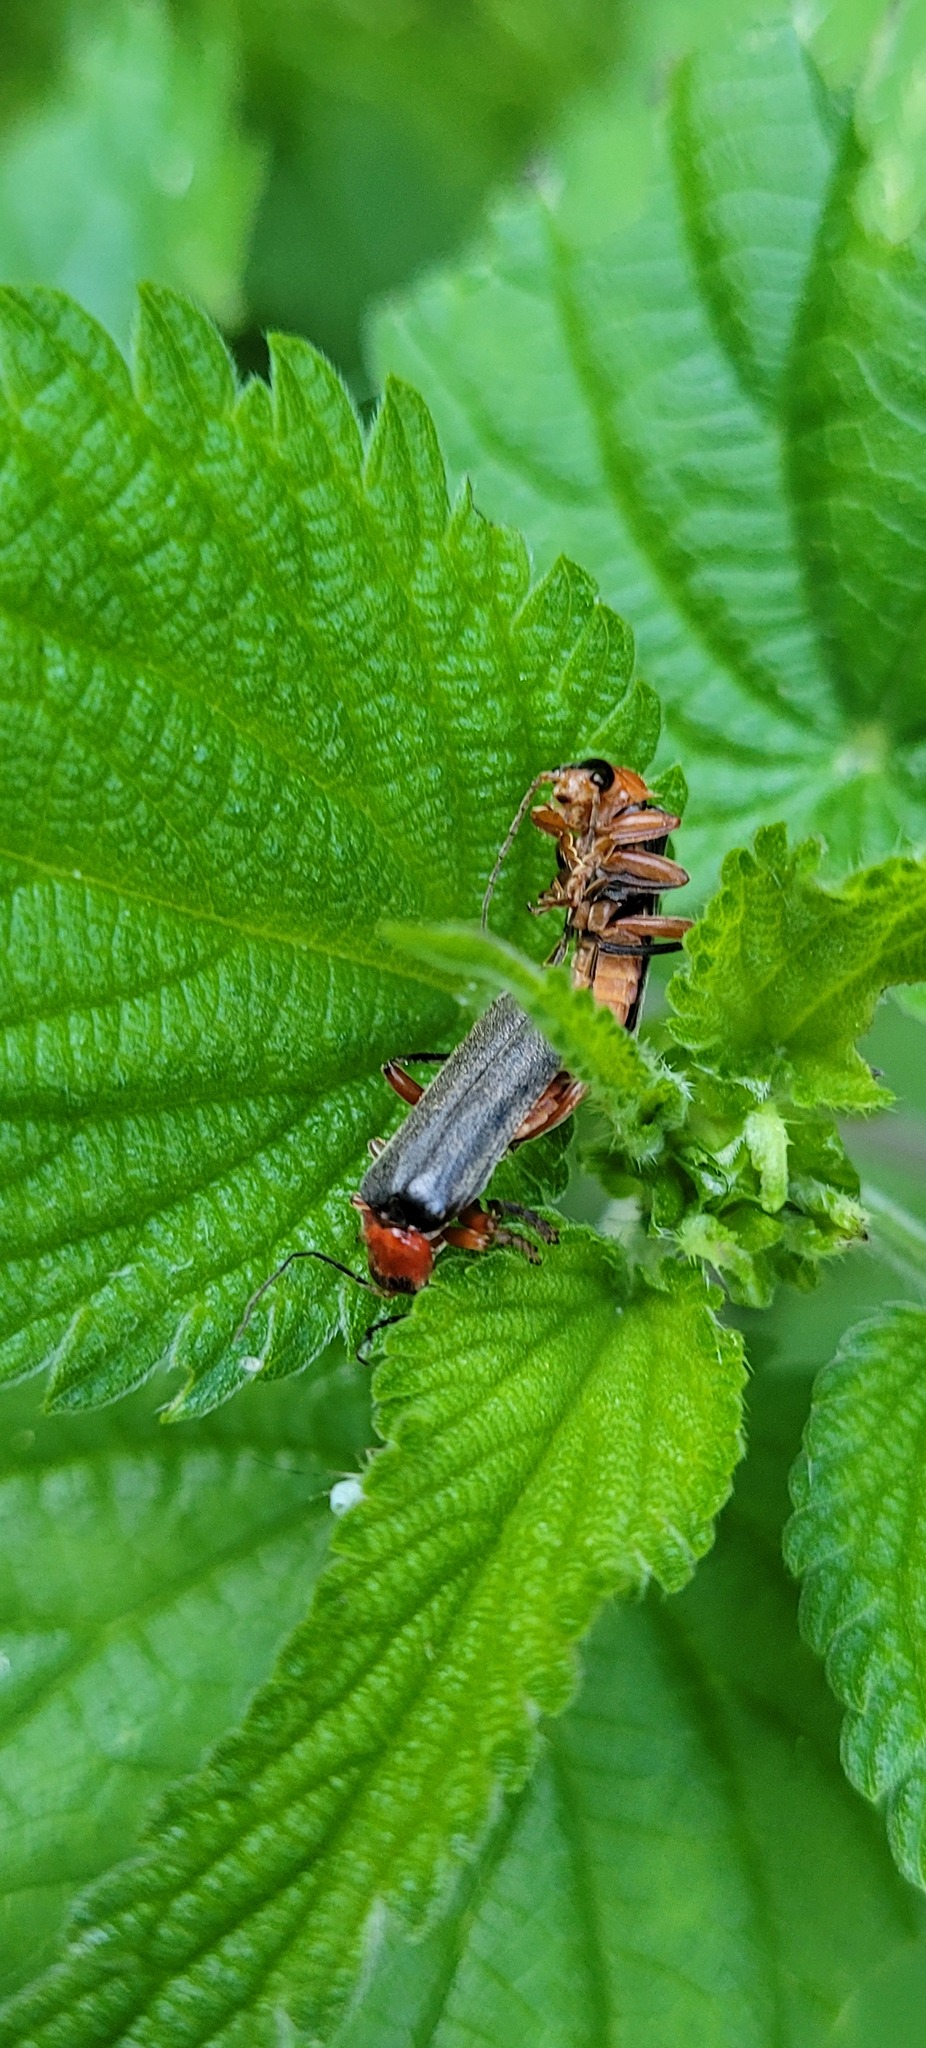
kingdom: Animalia
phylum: Arthropoda
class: Insecta
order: Coleoptera
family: Cantharidae
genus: Cantharis
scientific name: Cantharis pellucida
